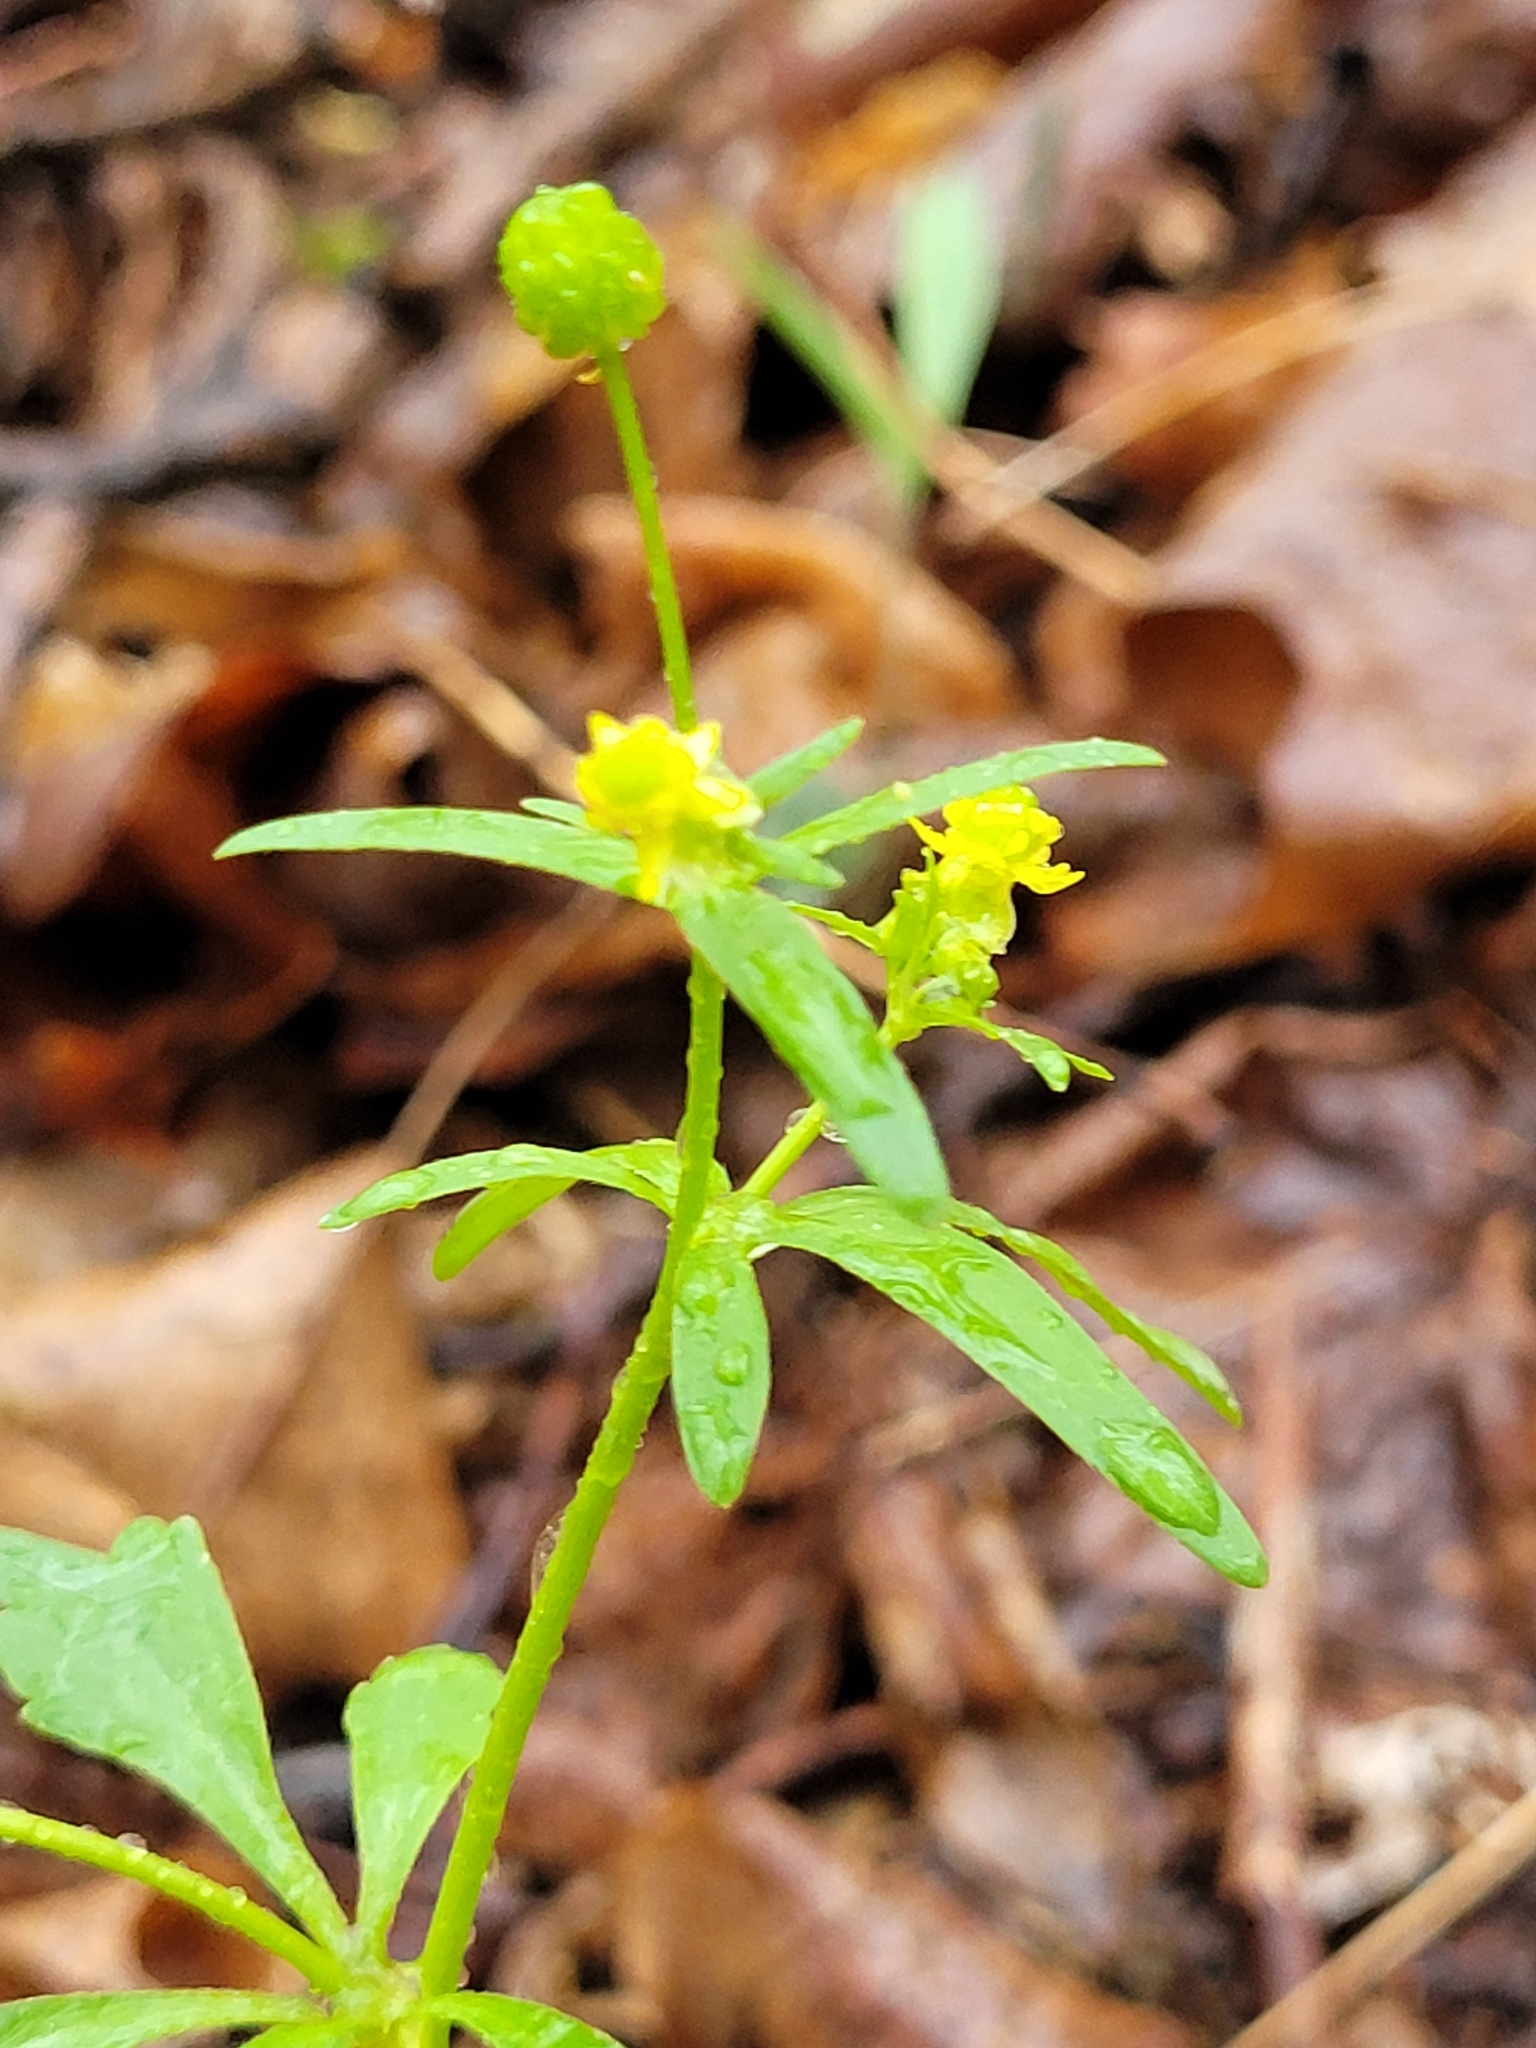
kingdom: Plantae
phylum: Tracheophyta
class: Magnoliopsida
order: Ranunculales
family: Ranunculaceae
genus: Ranunculus
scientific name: Ranunculus abortivus
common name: Early wood buttercup
